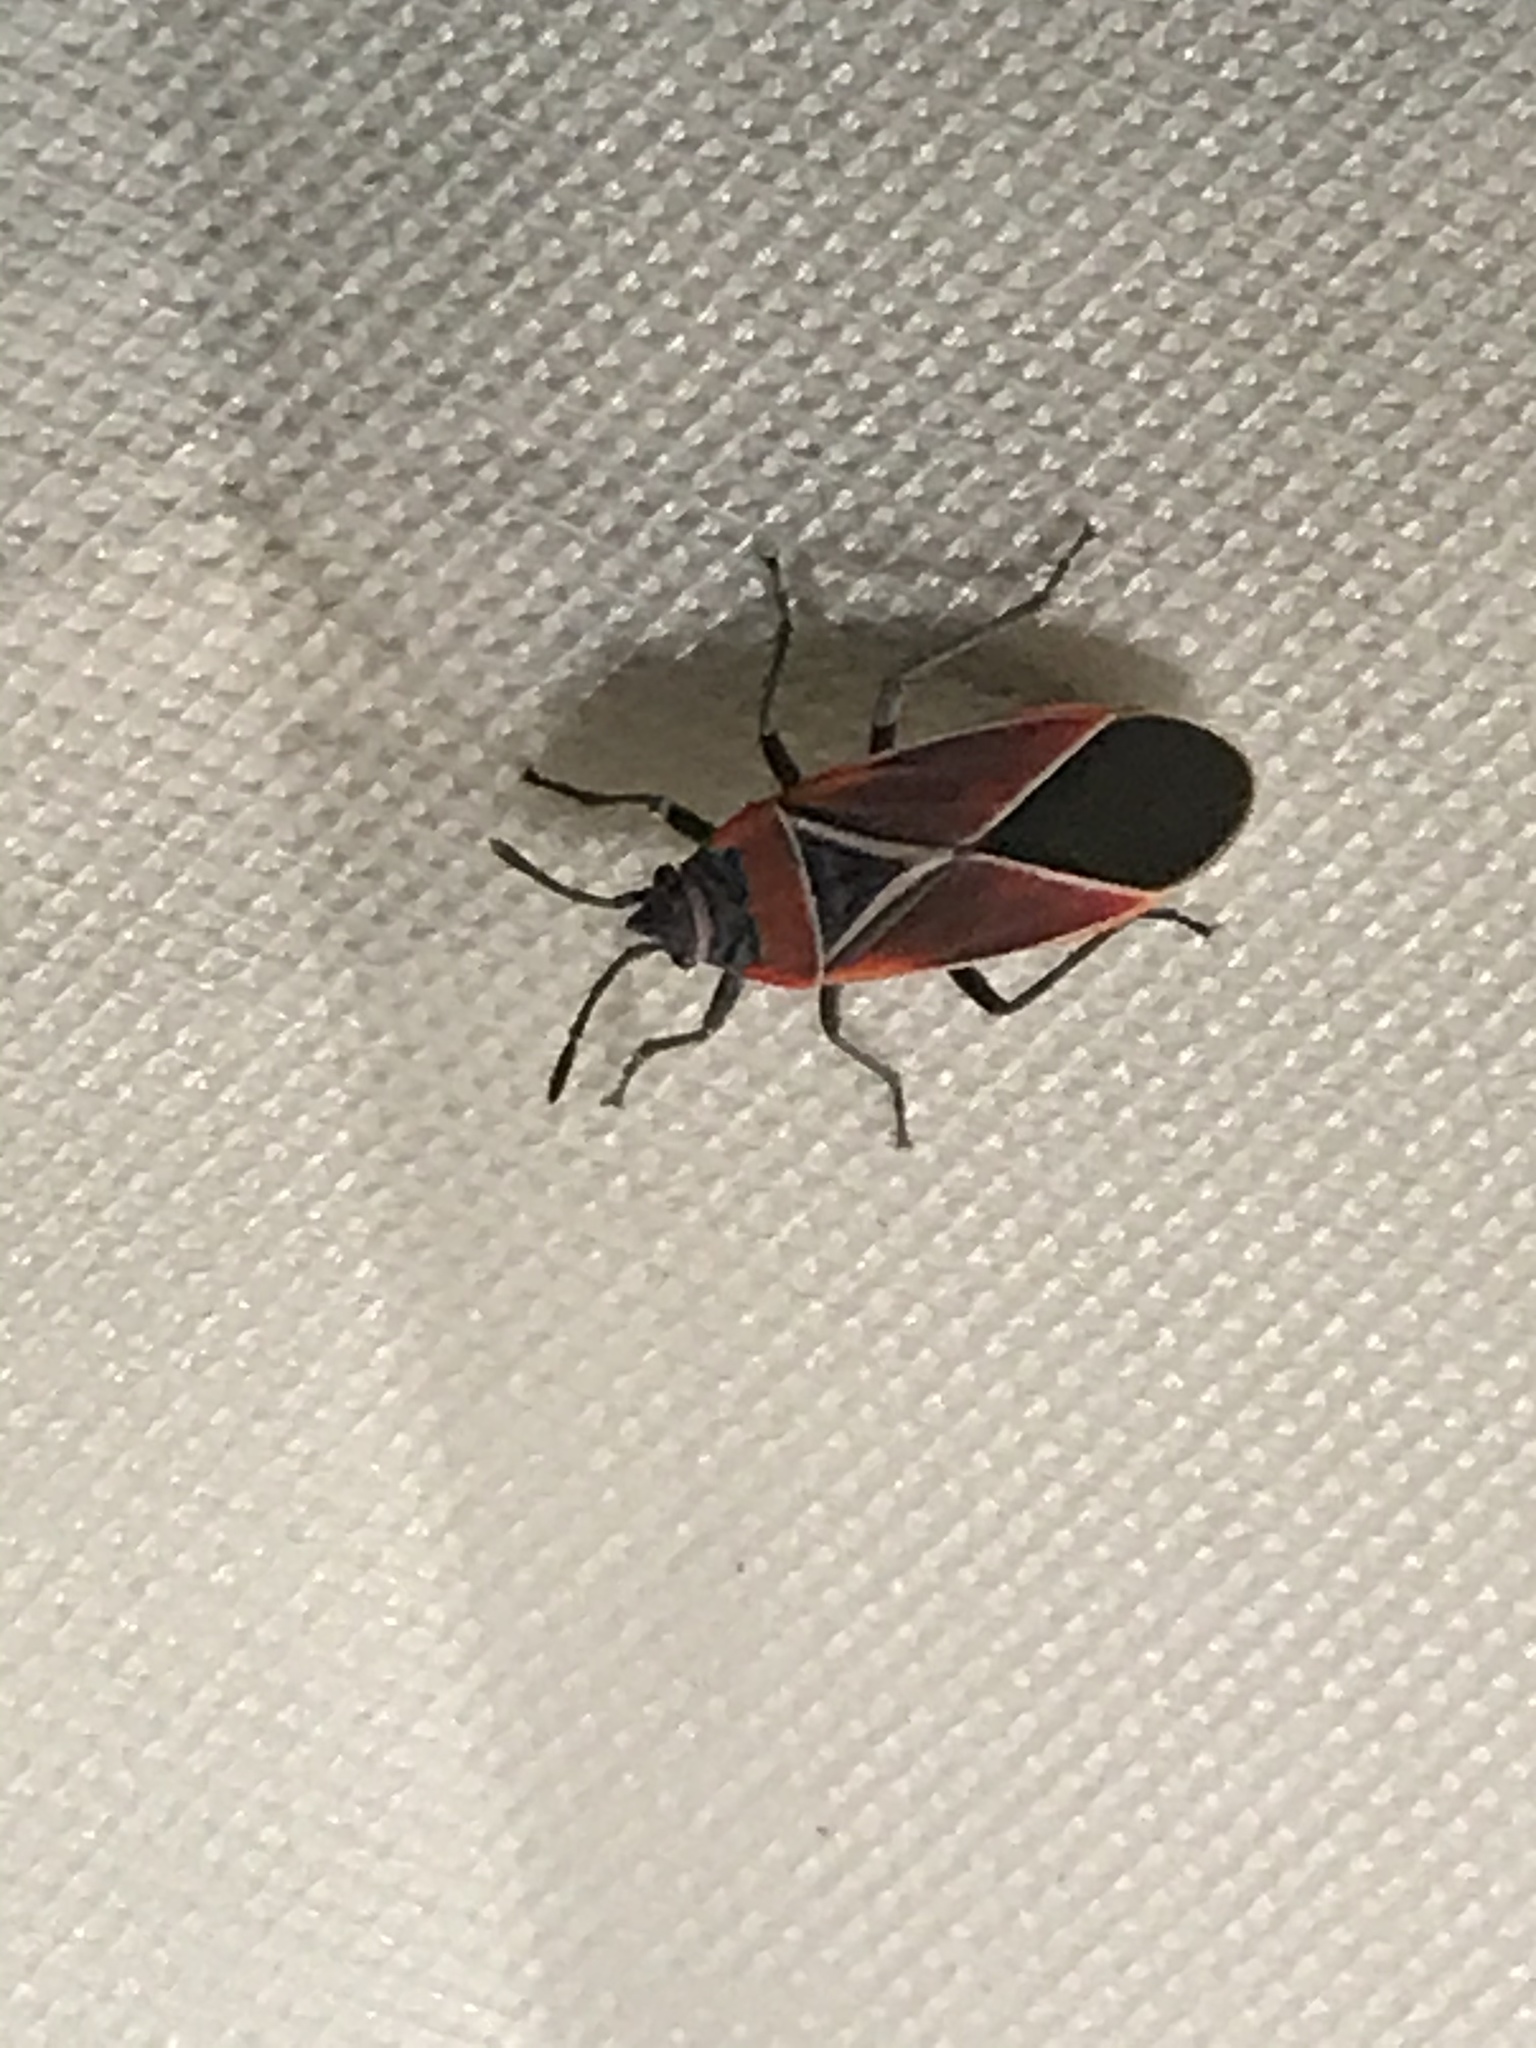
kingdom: Animalia
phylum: Arthropoda
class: Insecta
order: Hemiptera
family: Lygaeidae
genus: Neacoryphus
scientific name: Neacoryphus bicrucis
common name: Lygaeid bug
